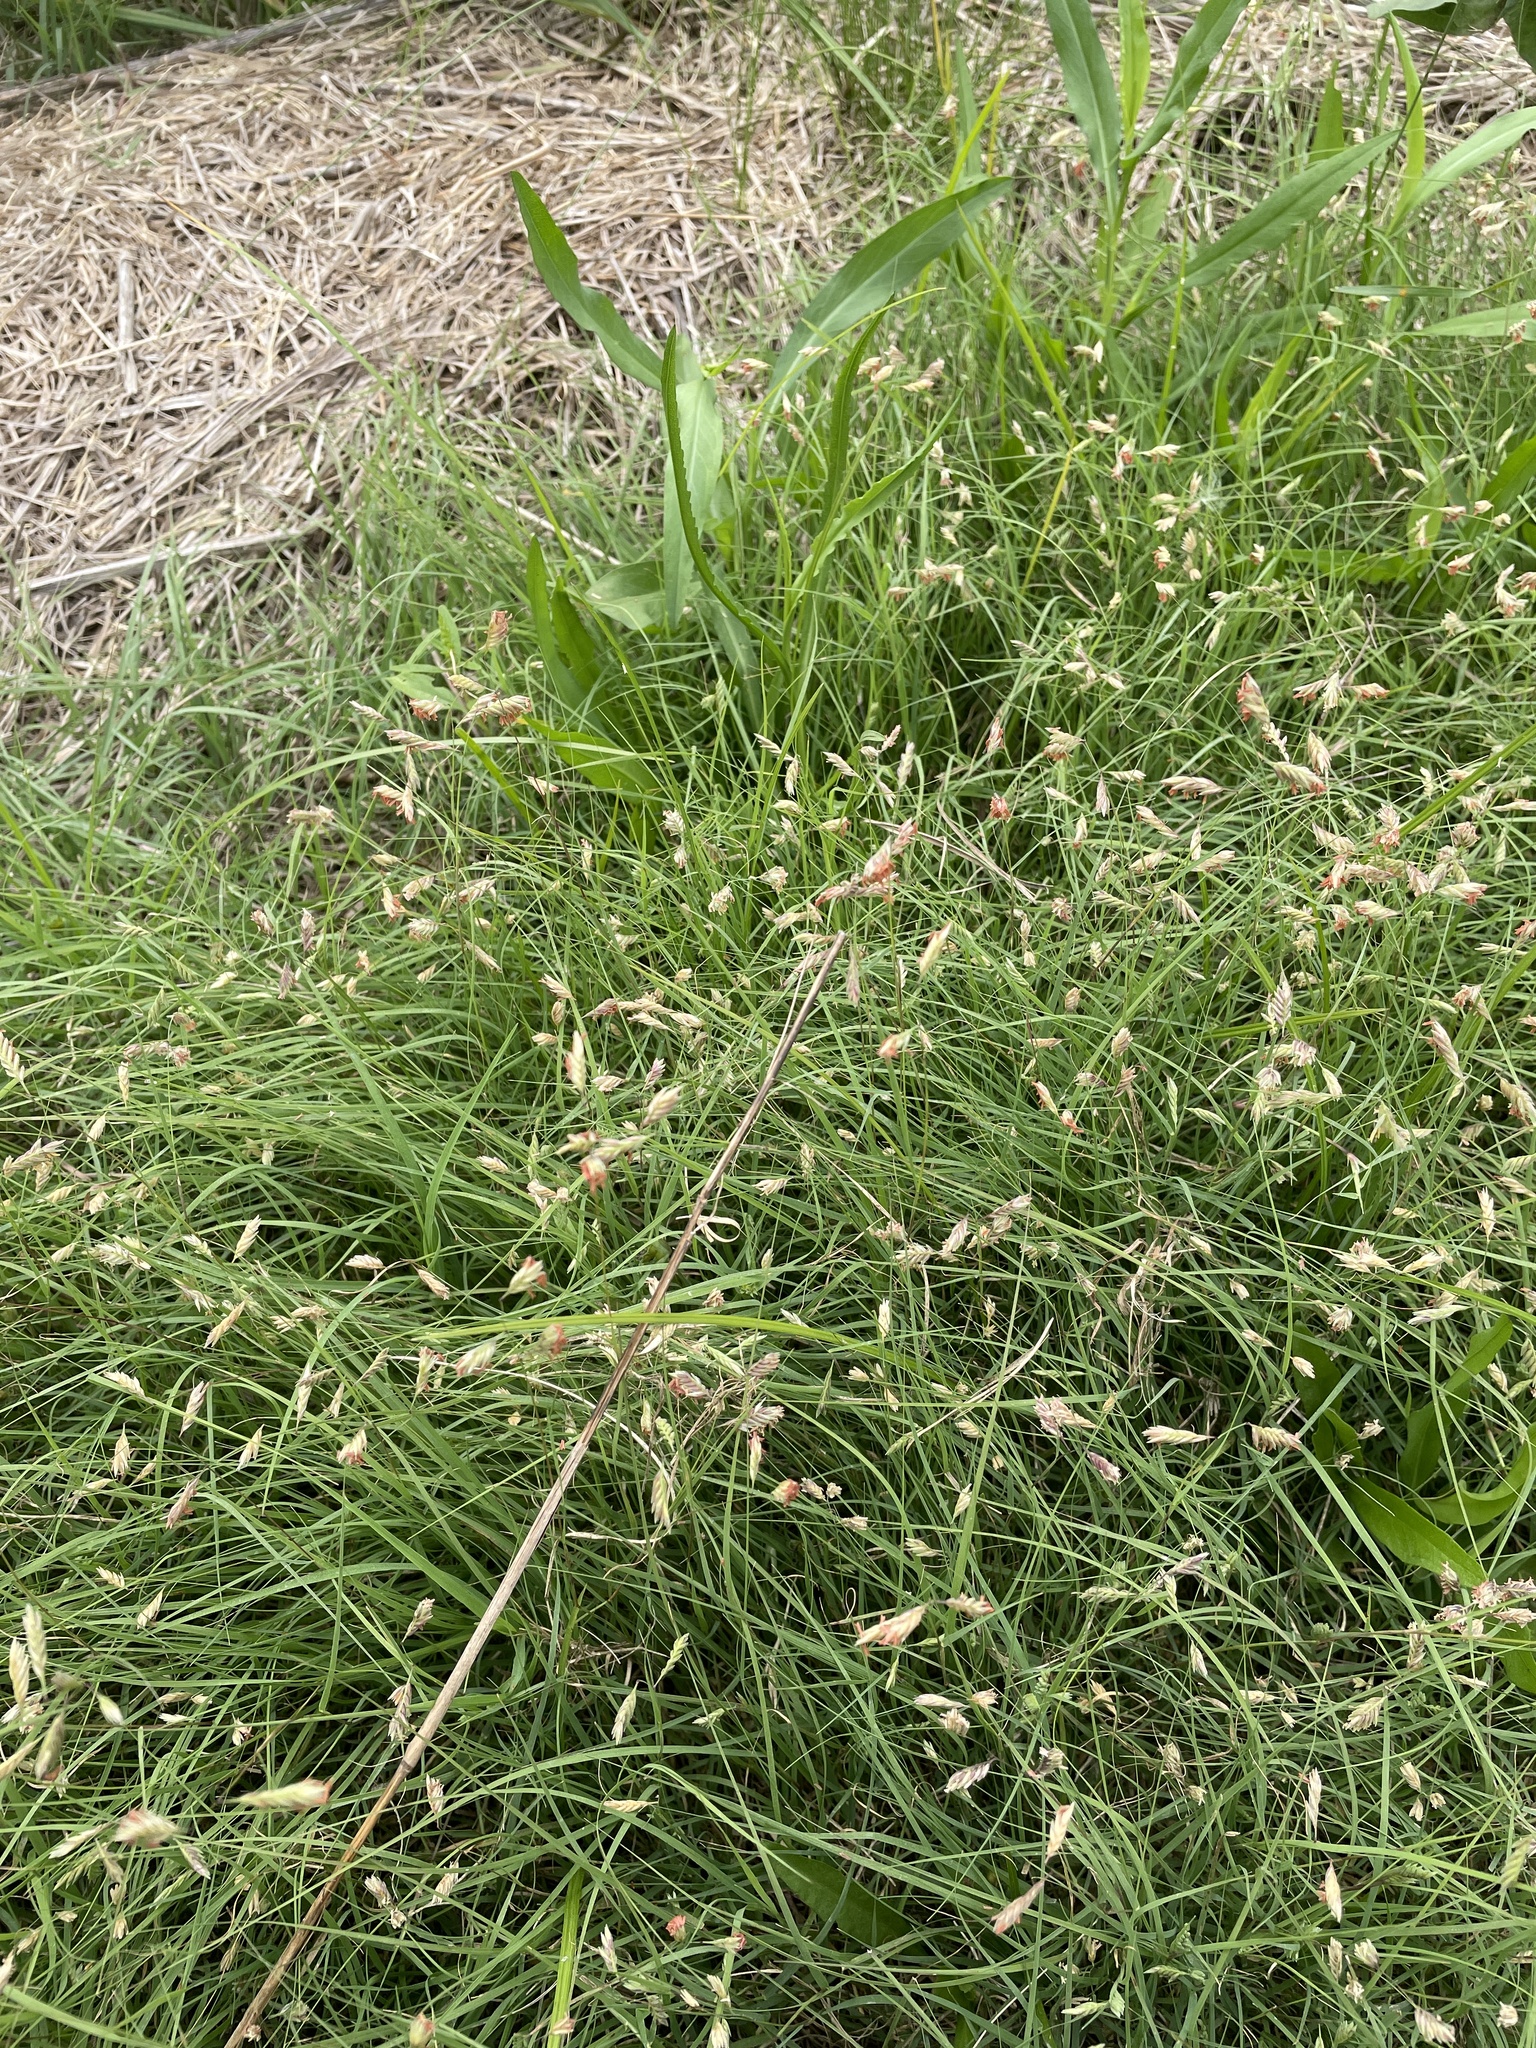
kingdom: Plantae
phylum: Tracheophyta
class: Liliopsida
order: Poales
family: Poaceae
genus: Bouteloua
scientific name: Bouteloua dactyloides
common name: Buffalo grass
